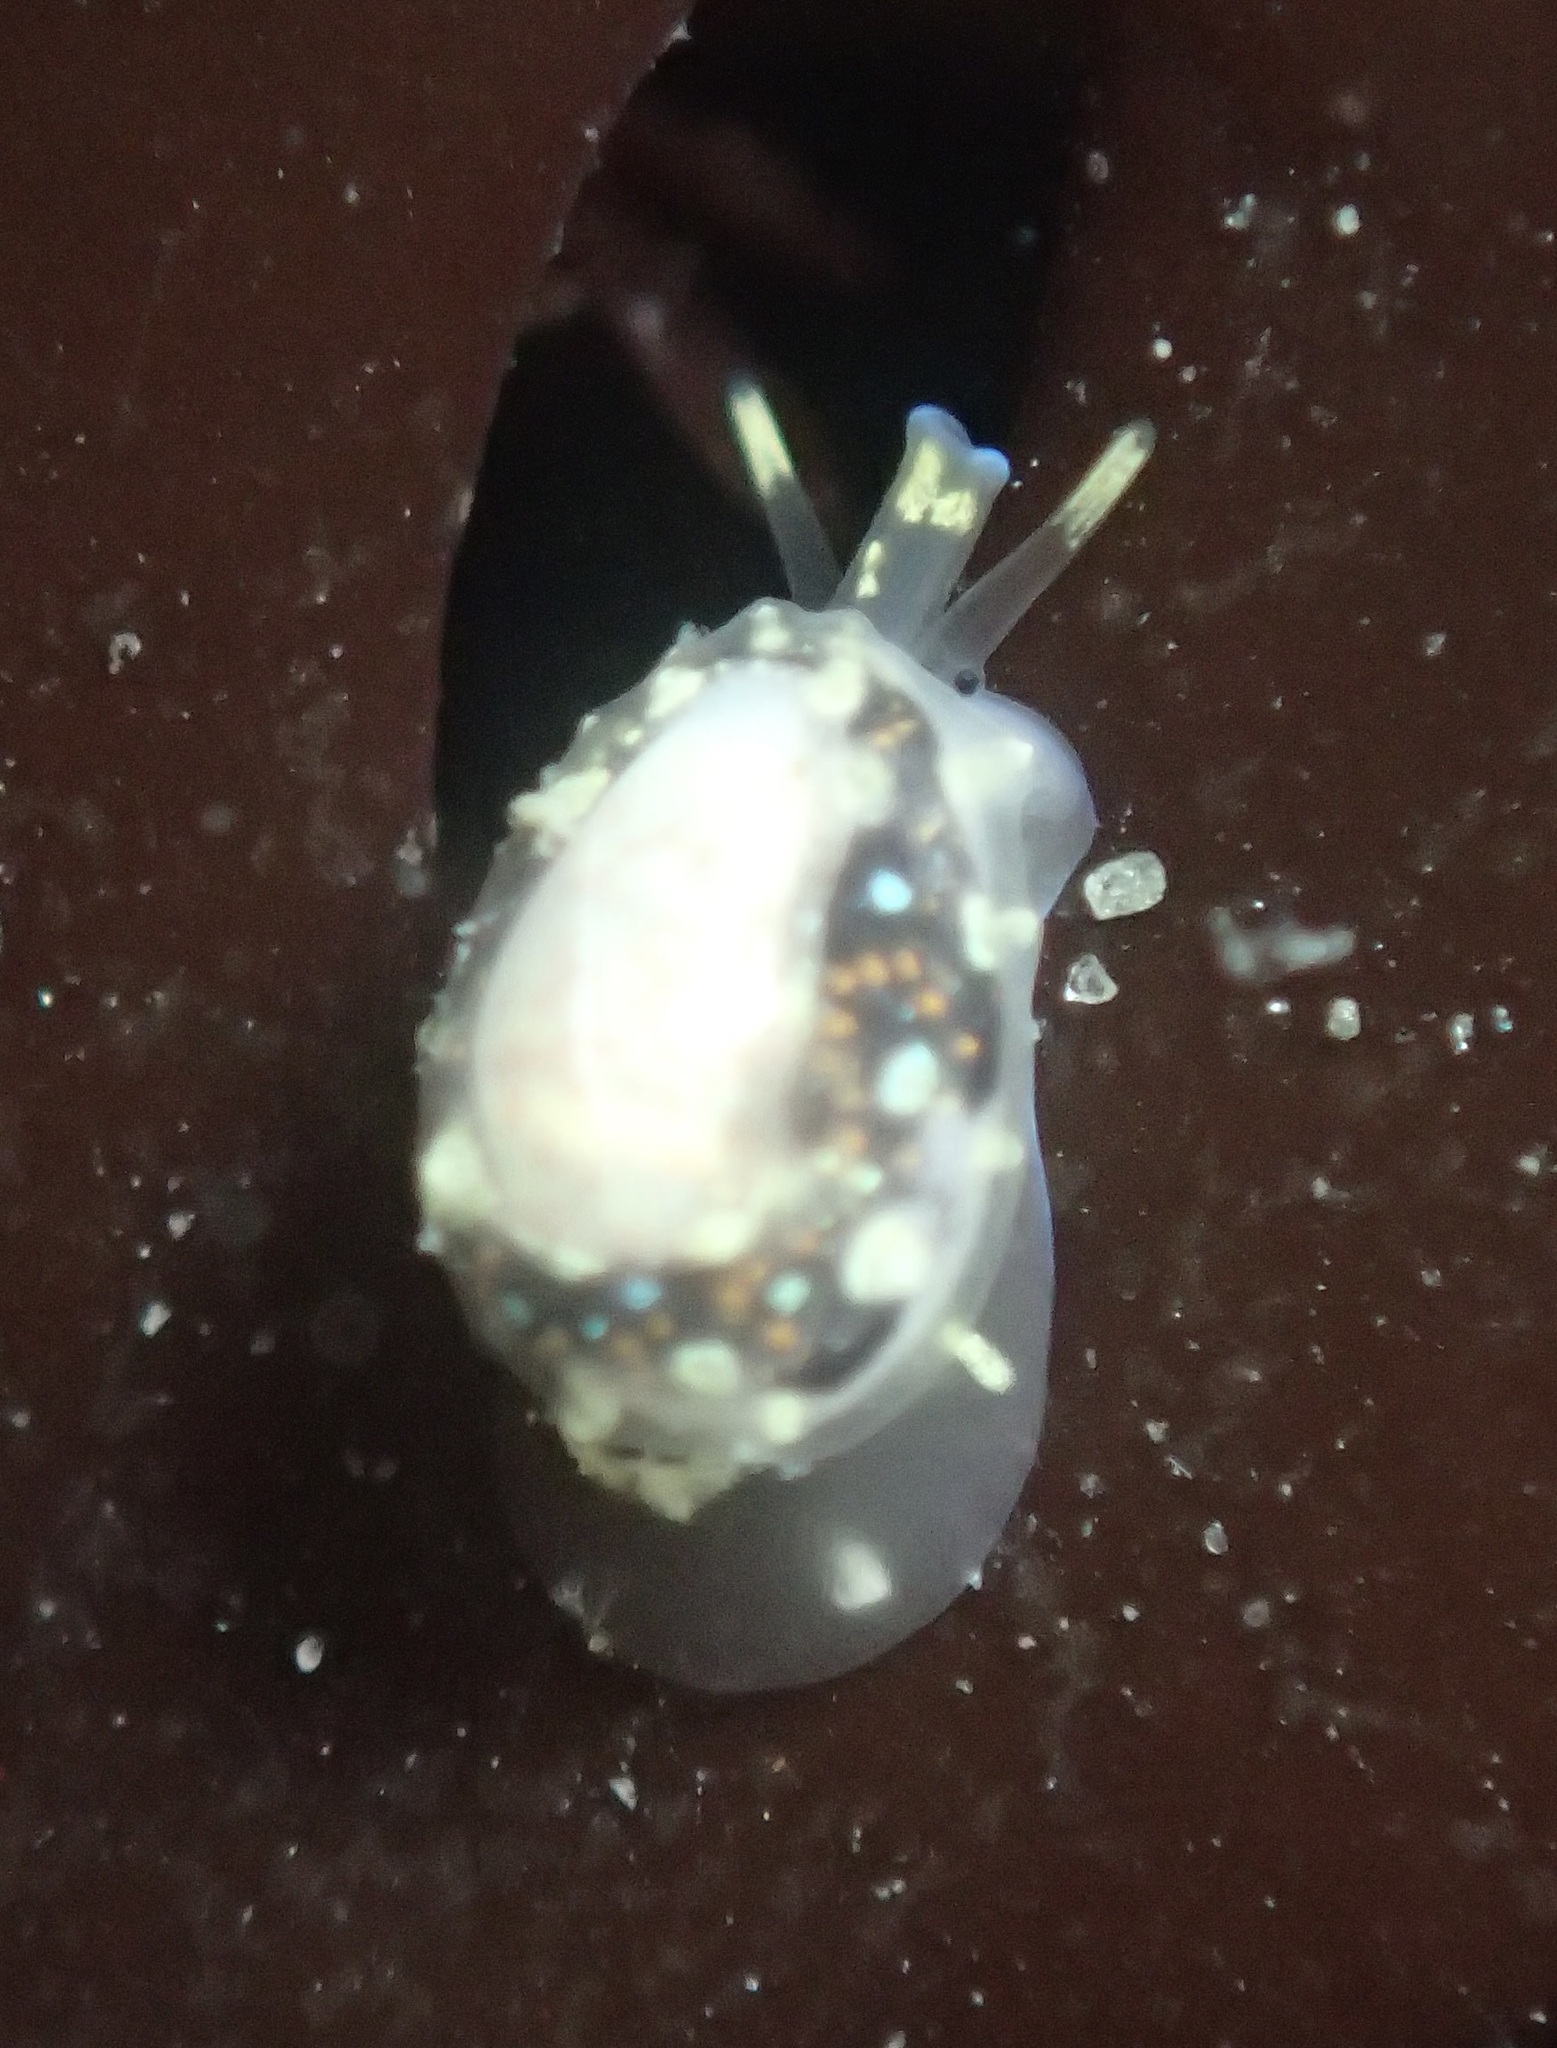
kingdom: Animalia
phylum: Mollusca
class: Gastropoda
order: Neogastropoda
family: Granulinidae
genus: Granulina
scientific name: Granulina margaritula
